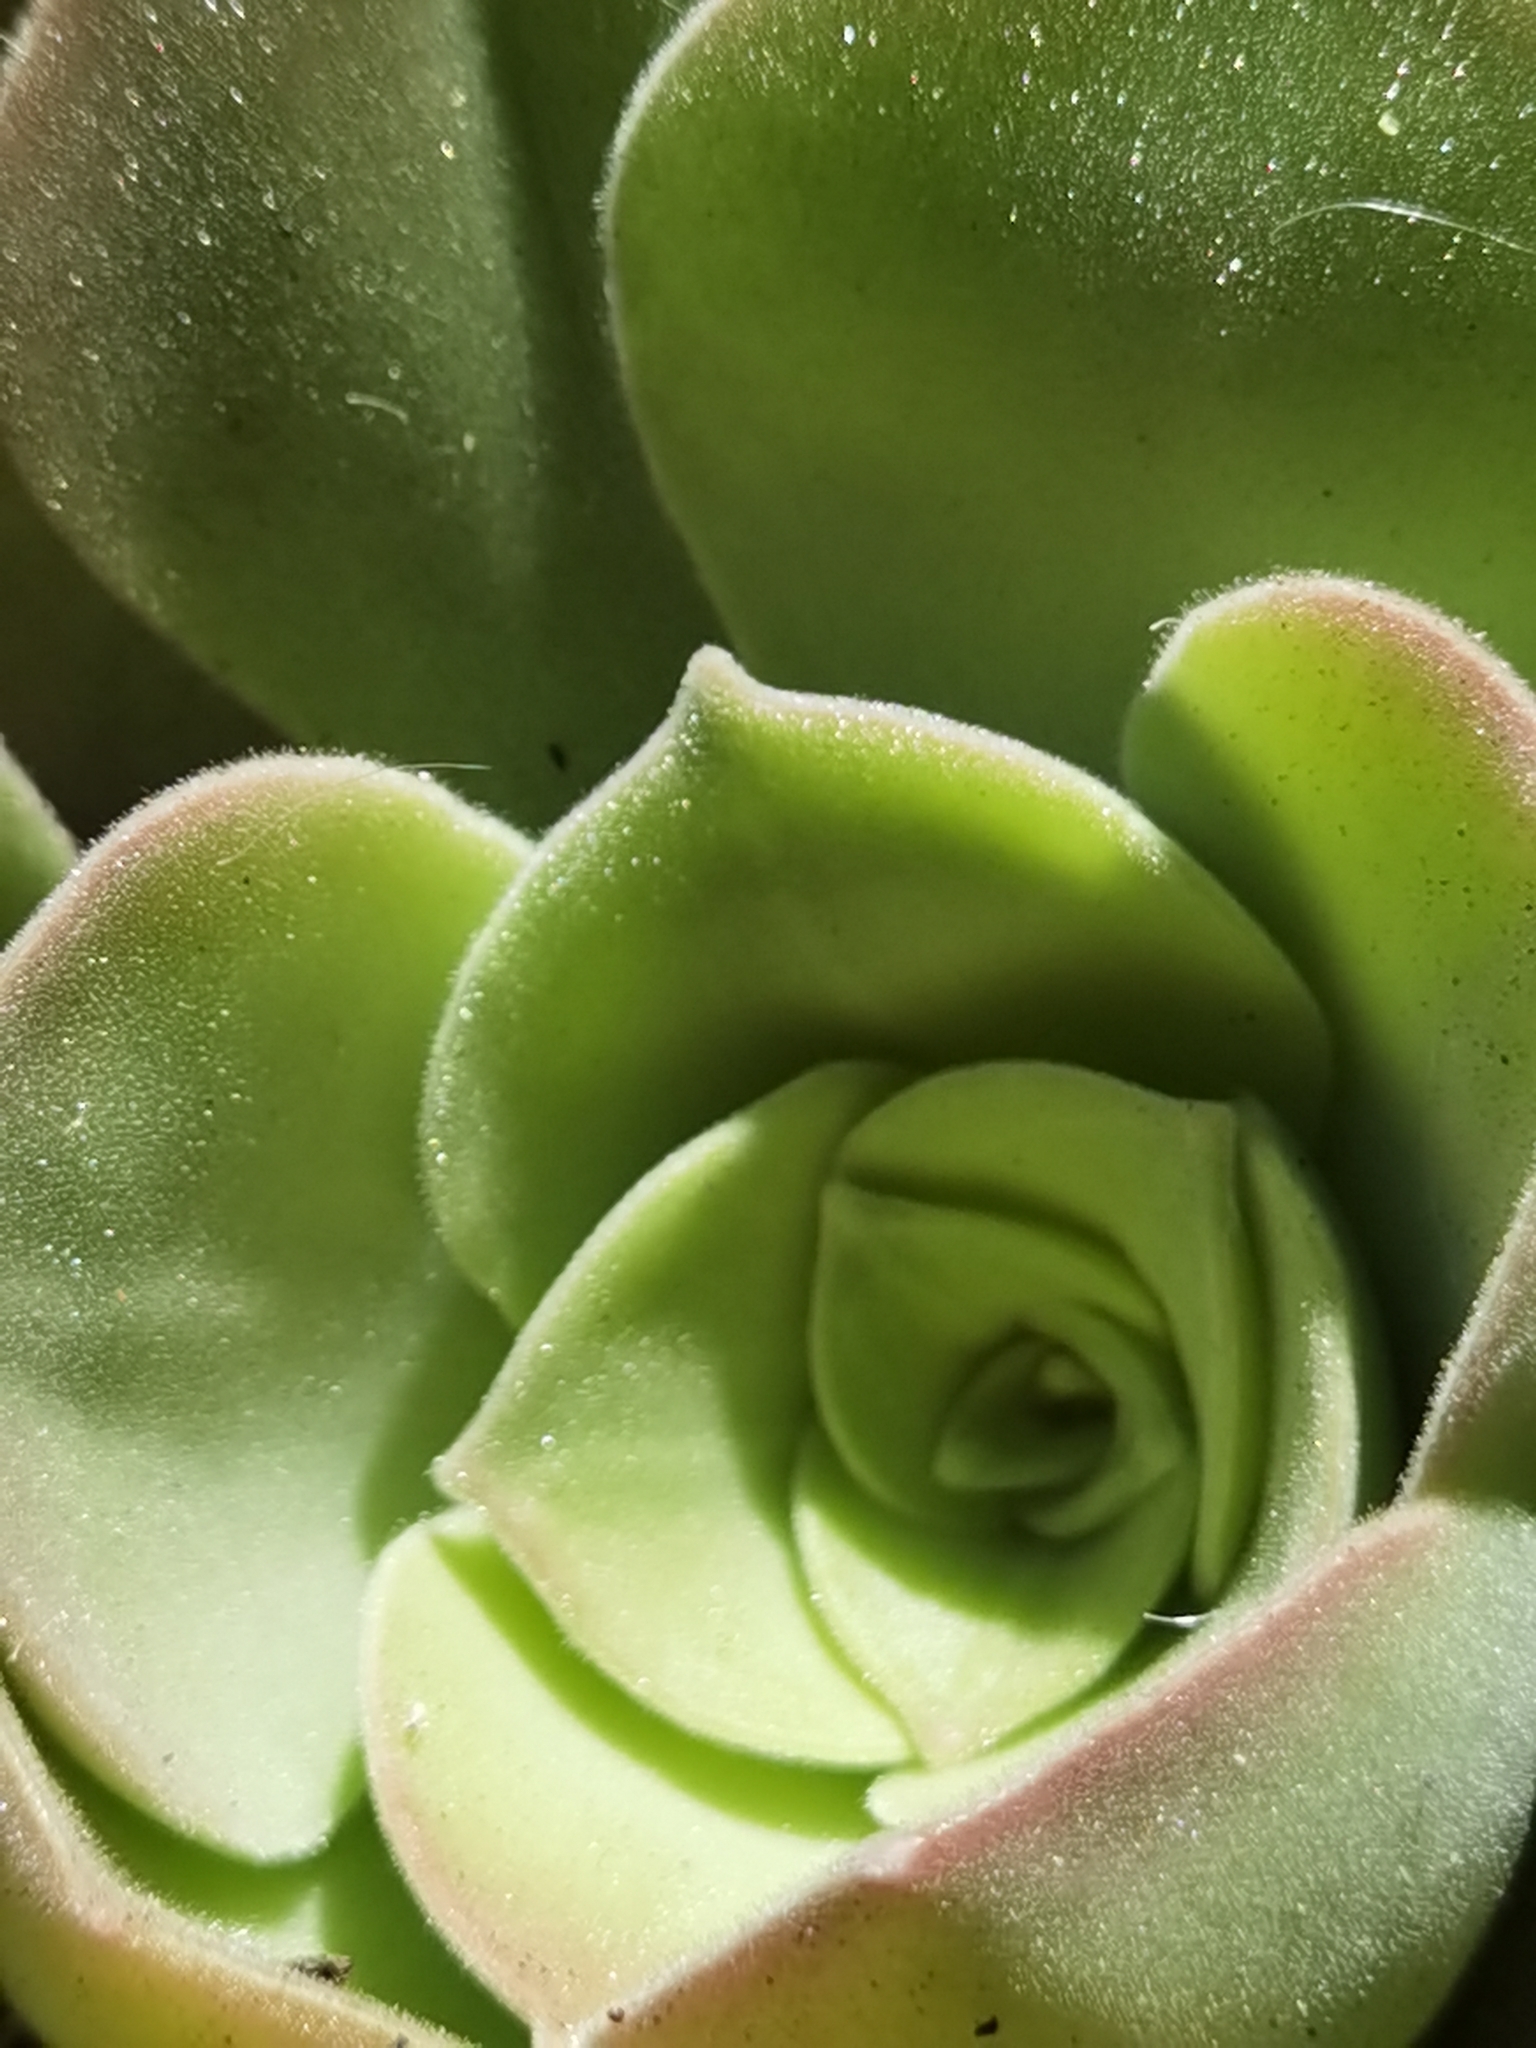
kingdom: Plantae
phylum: Tracheophyta
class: Magnoliopsida
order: Saxifragales
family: Crassulaceae
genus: Aeonium
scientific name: Aeonium canariense
